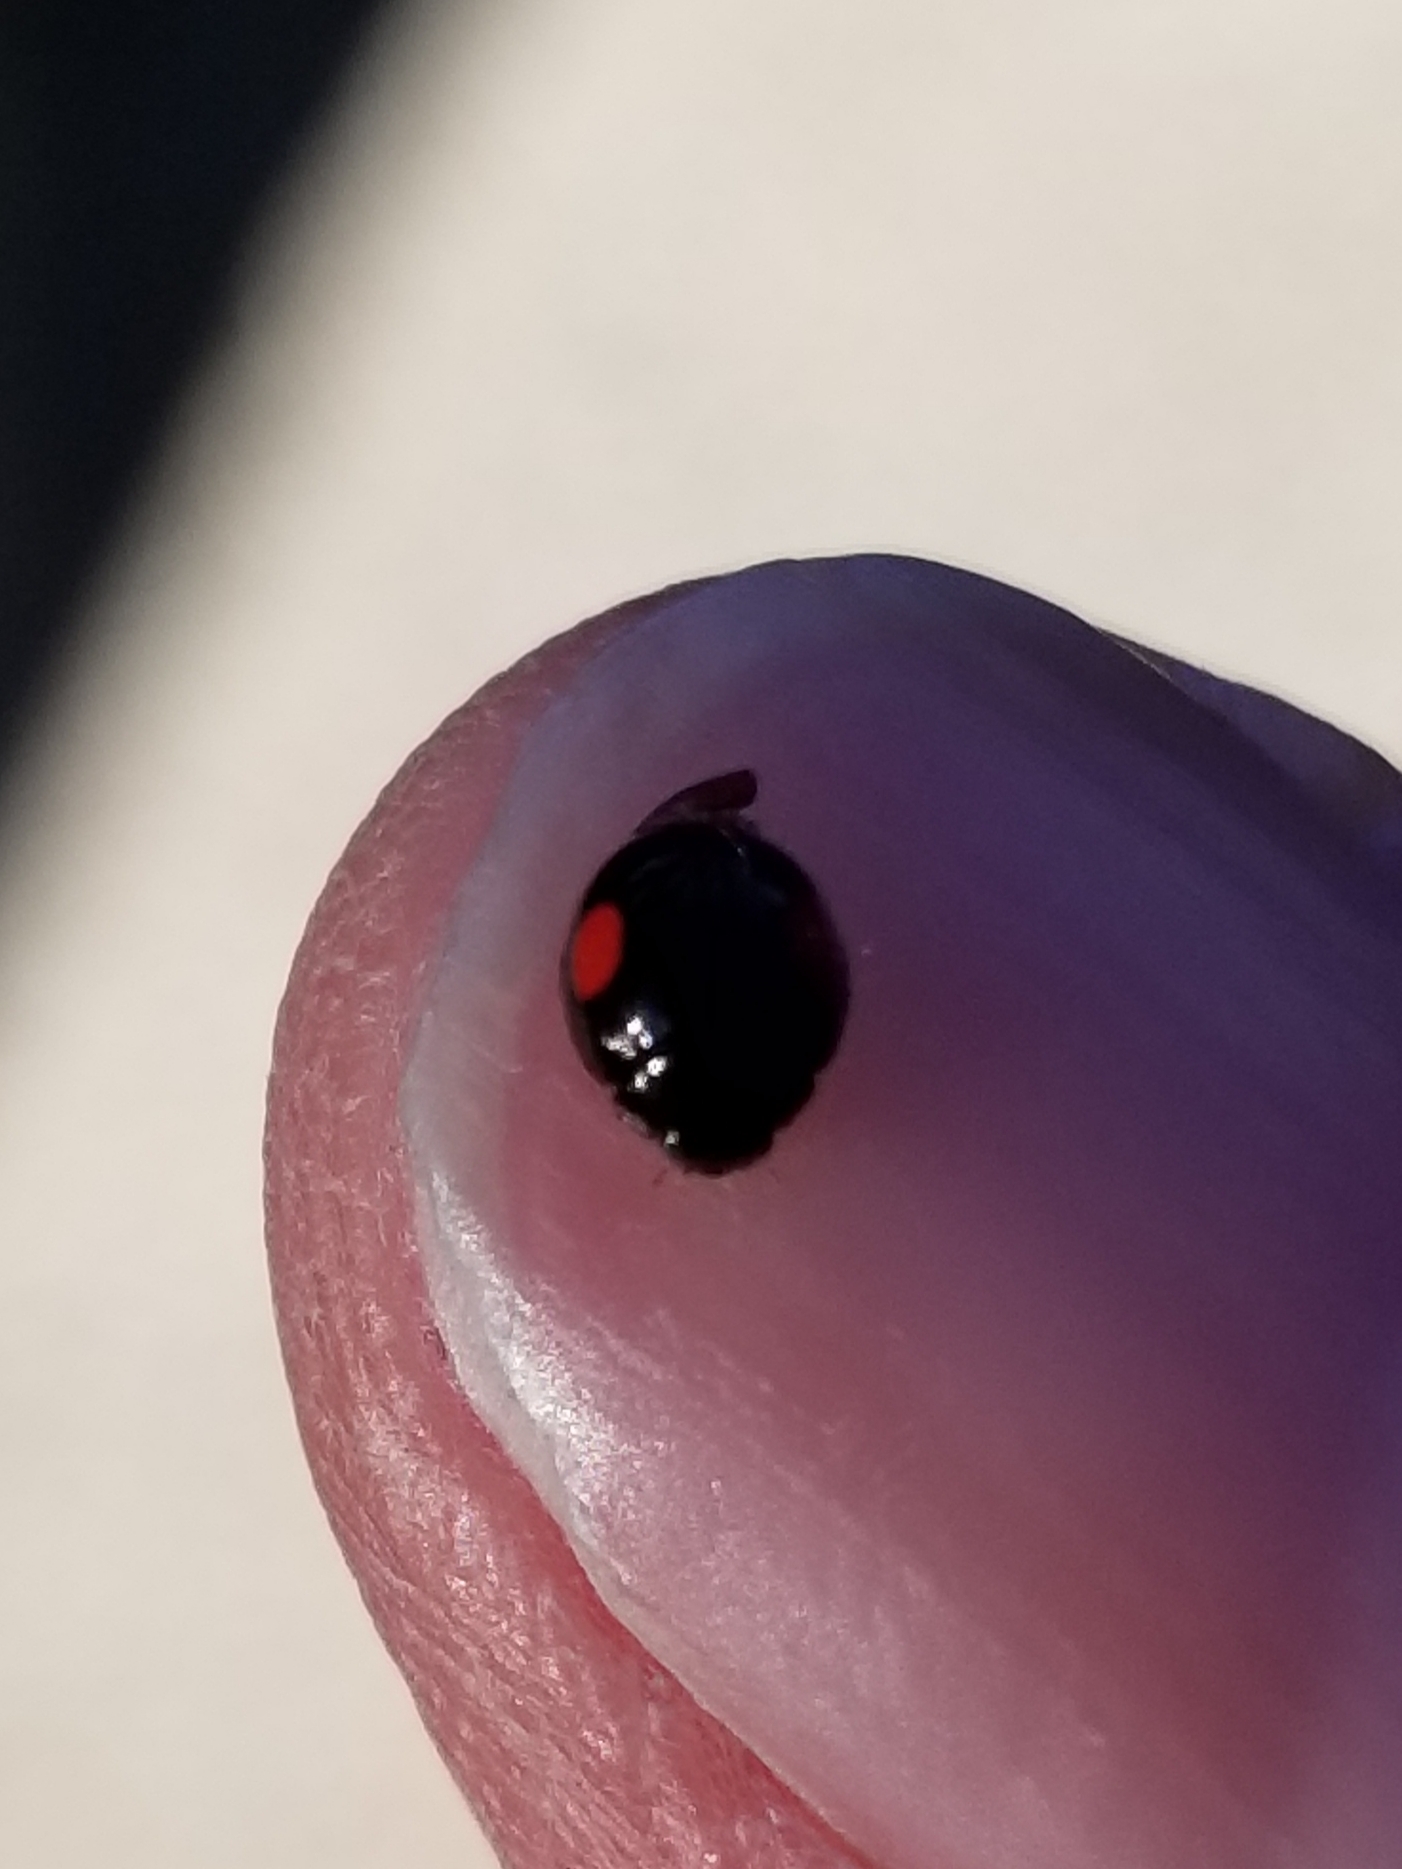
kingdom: Animalia
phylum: Arthropoda
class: Insecta
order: Coleoptera
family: Coccinellidae
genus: Chilocorus
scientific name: Chilocorus stigma
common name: Twicestabbed lady beetle
